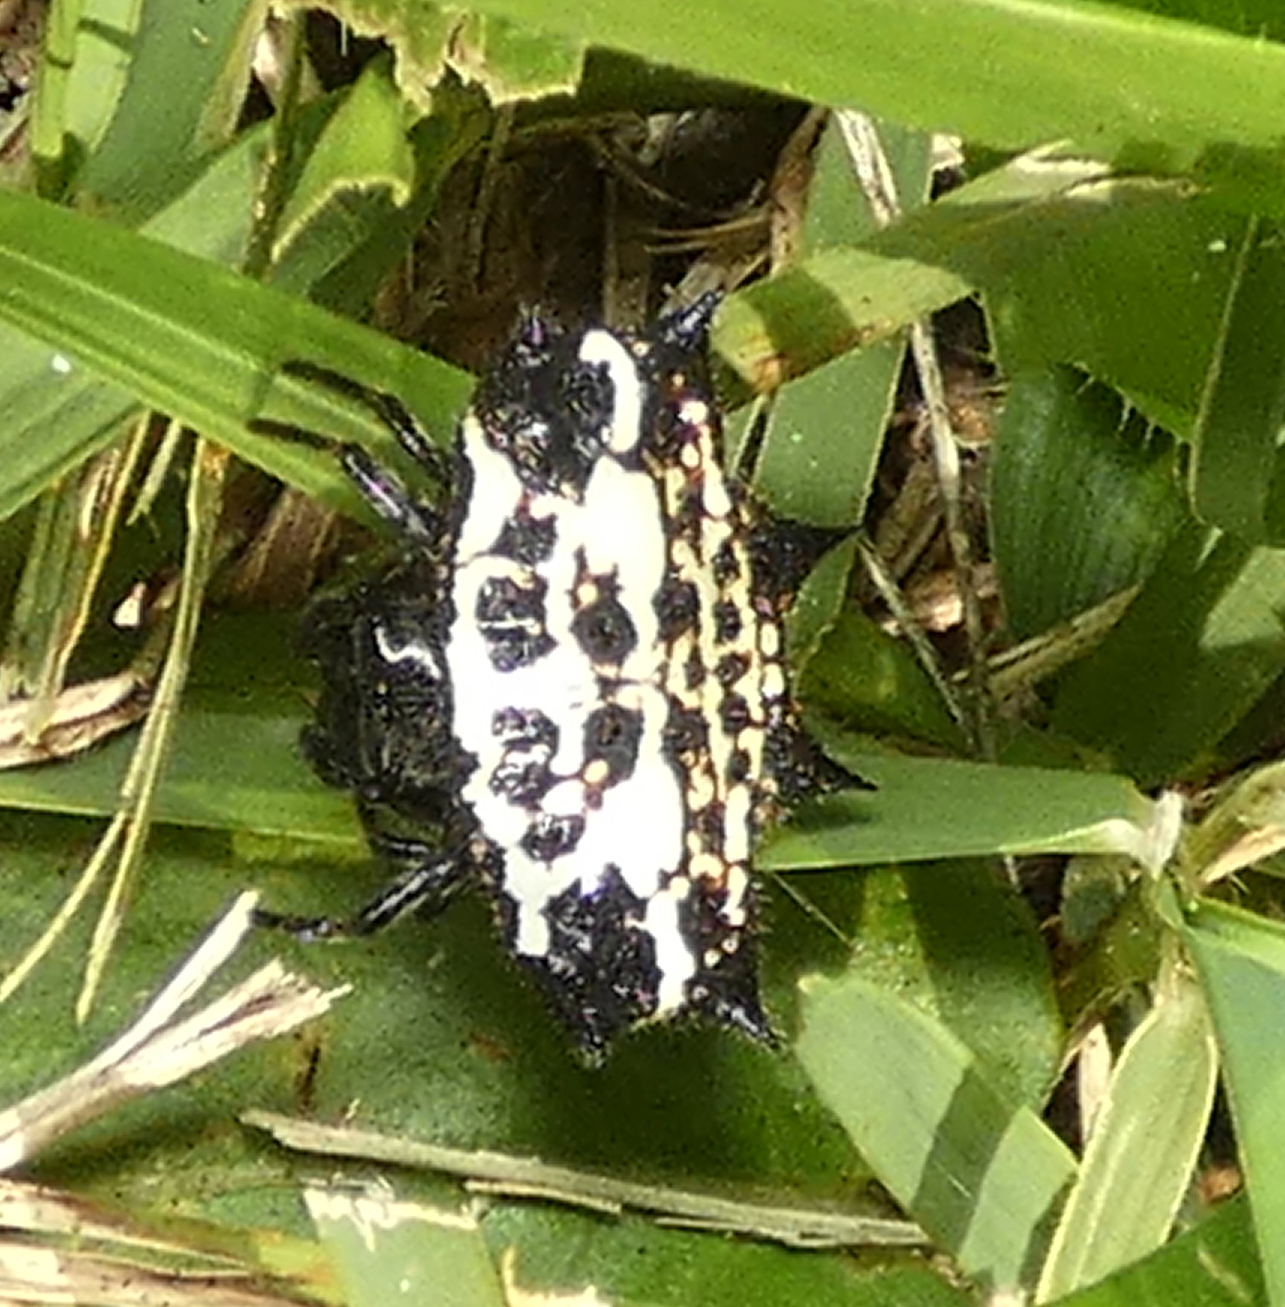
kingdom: Animalia
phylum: Arthropoda
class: Arachnida
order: Araneae
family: Araneidae
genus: Gasteracantha
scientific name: Gasteracantha cancriformis
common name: Orb weavers
